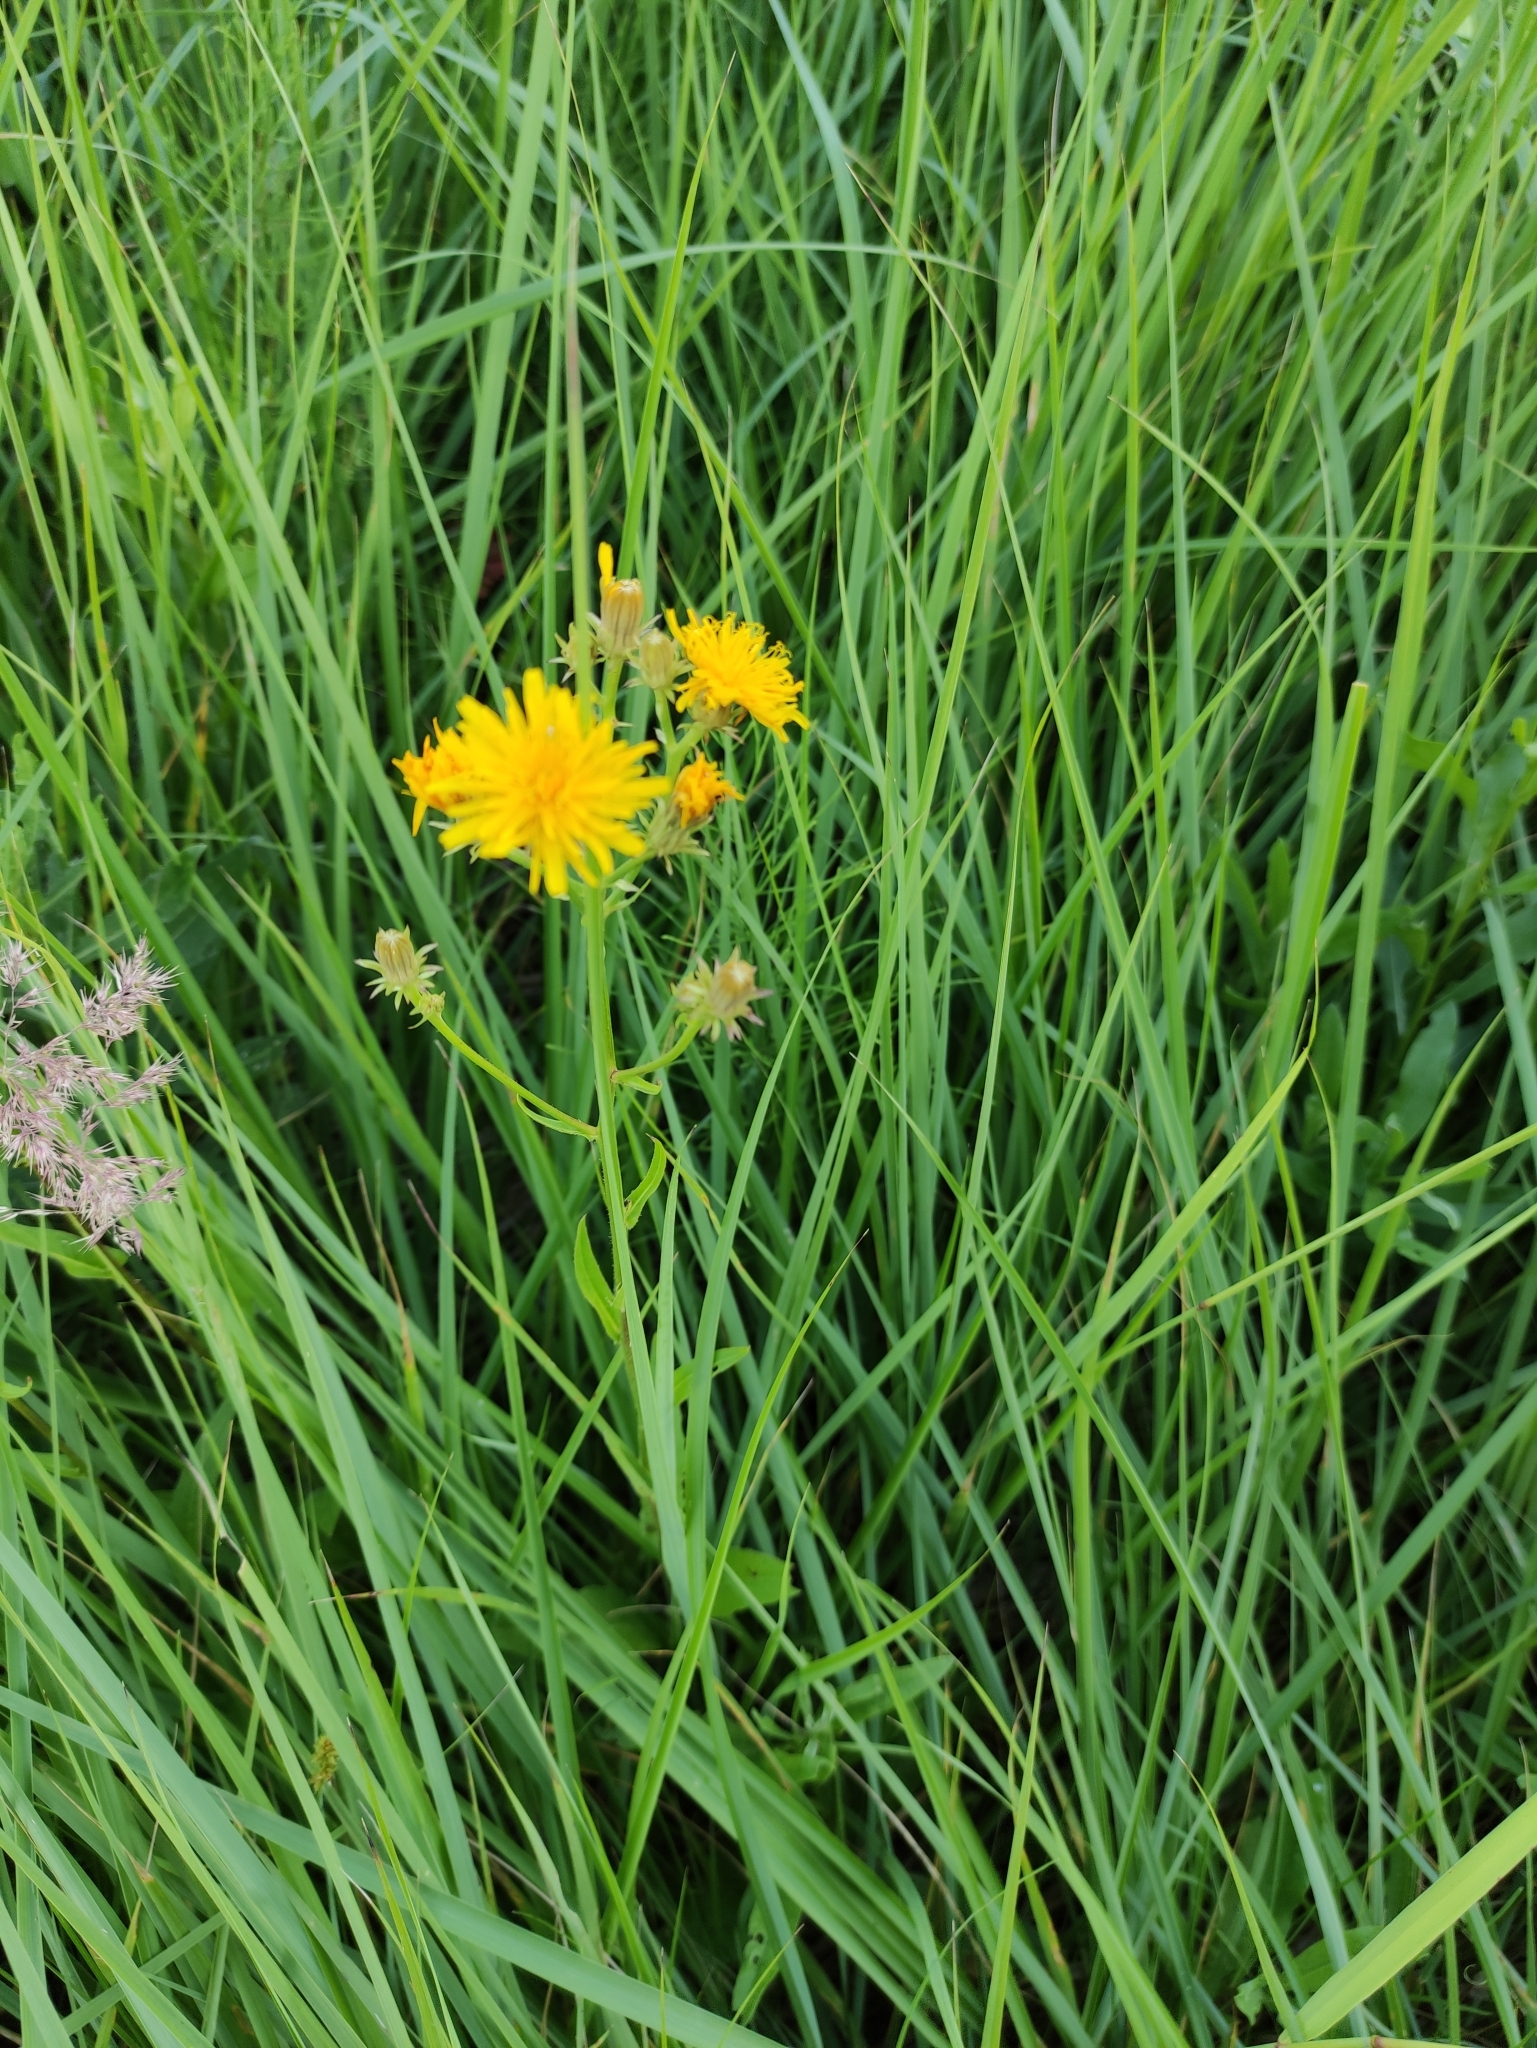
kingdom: Plantae
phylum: Tracheophyta
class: Magnoliopsida
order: Asterales
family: Asteraceae
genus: Picris
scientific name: Picris hieracioides
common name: Hawkweed oxtongue
